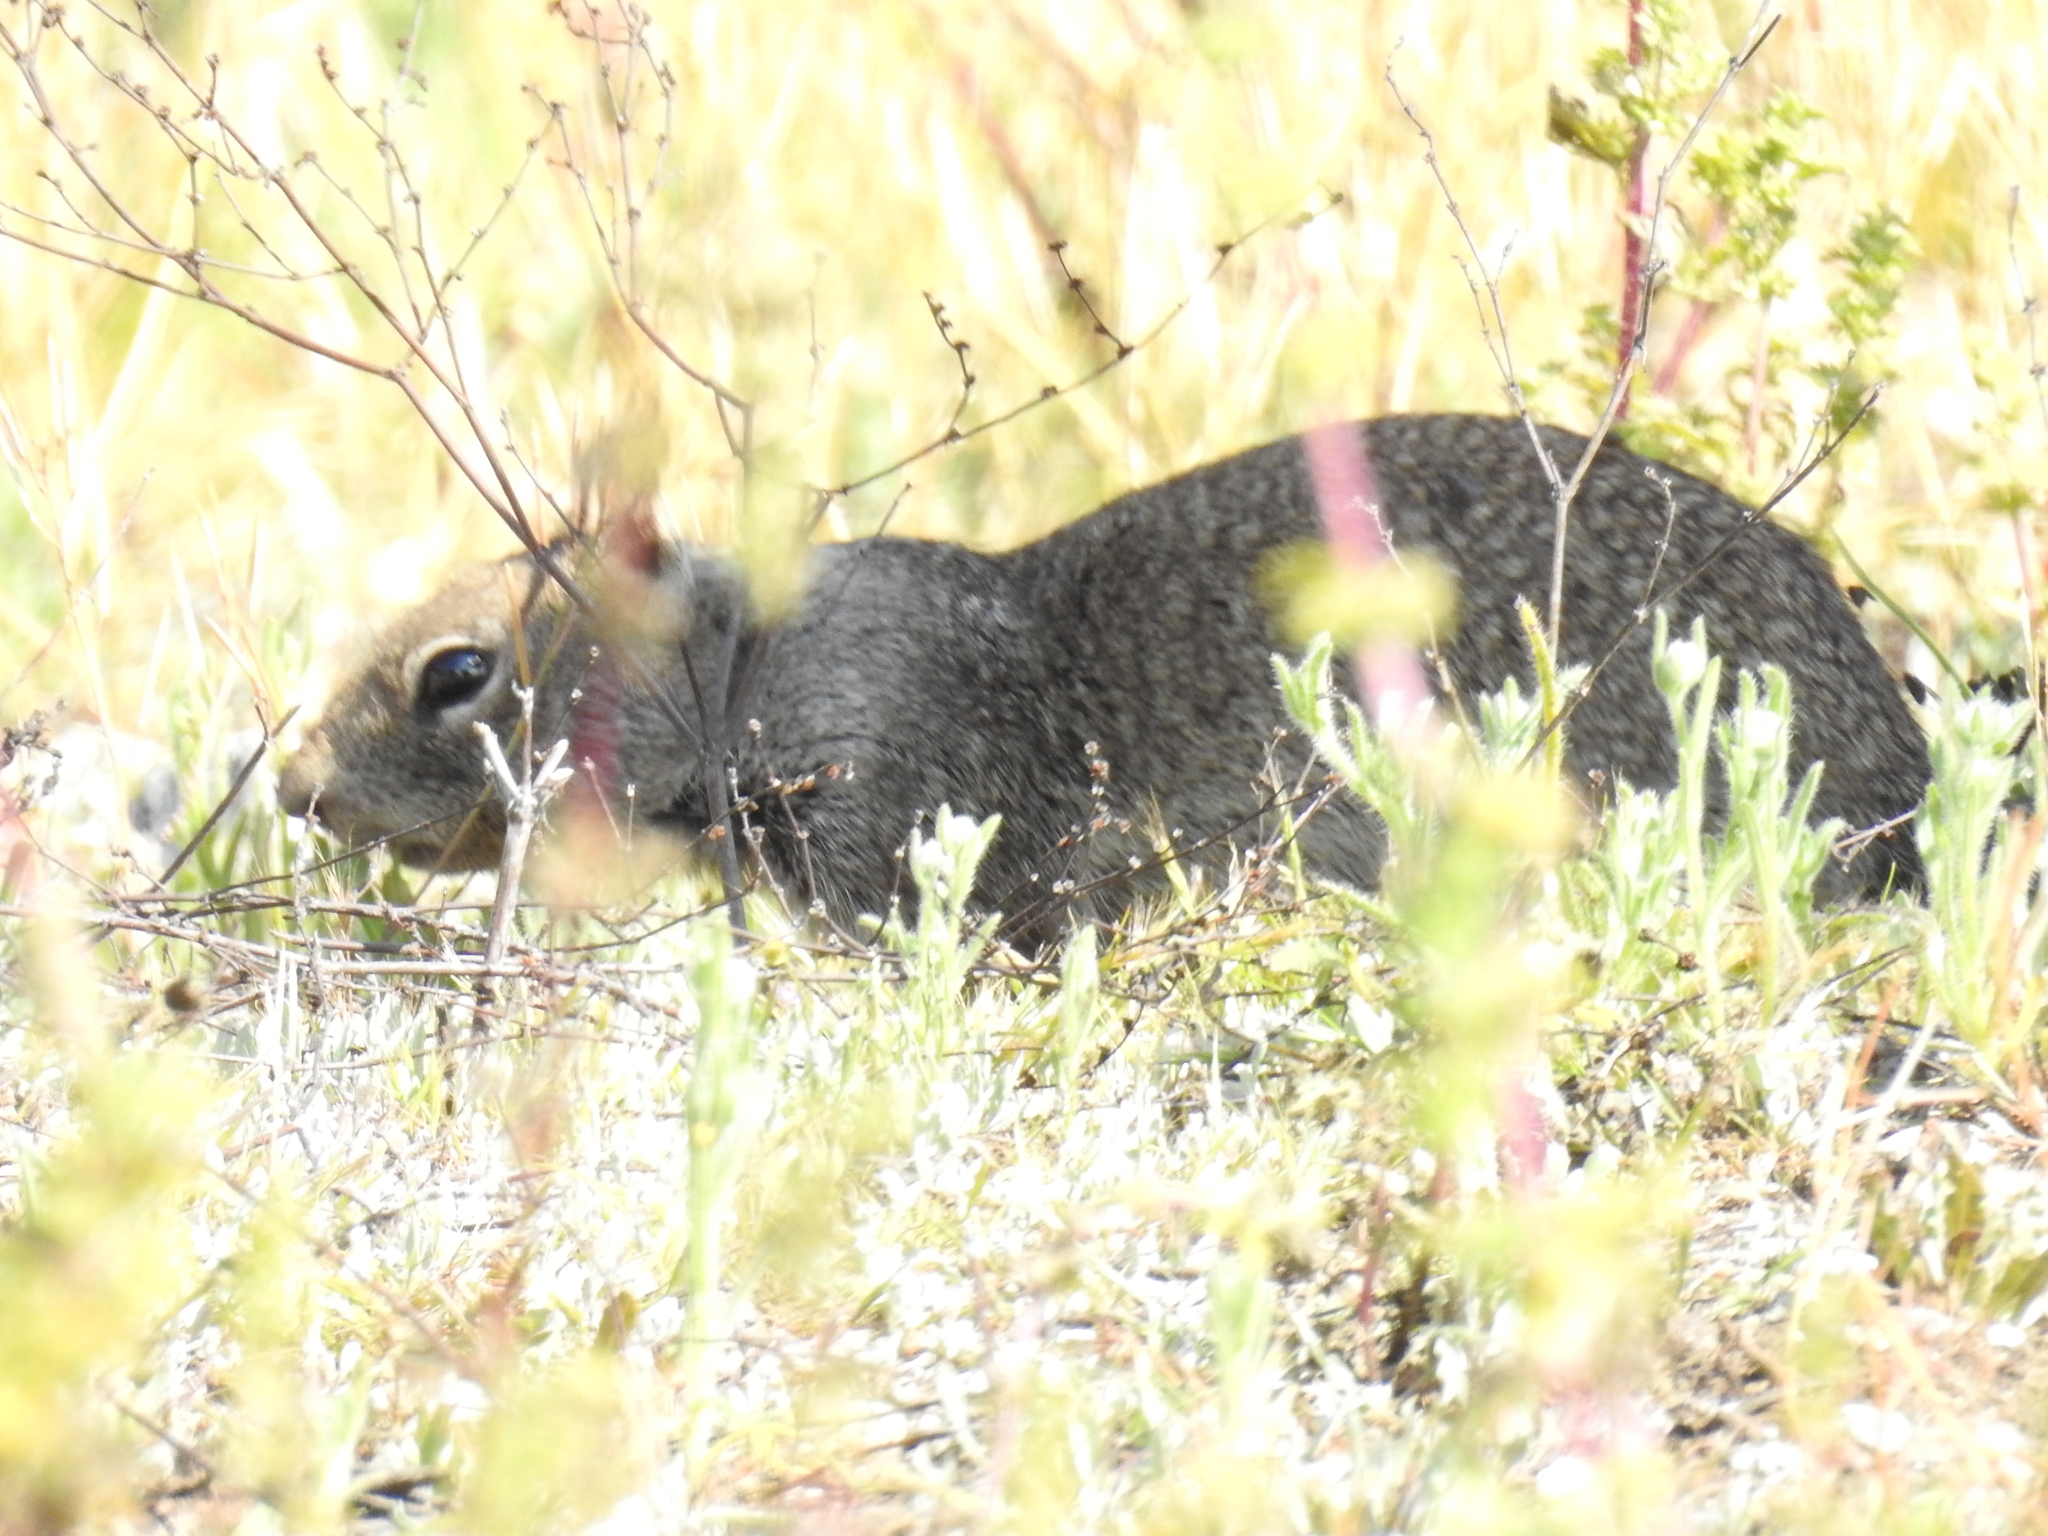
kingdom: Animalia
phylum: Chordata
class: Mammalia
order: Rodentia
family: Sciuridae
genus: Otospermophilus
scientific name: Otospermophilus beecheyi
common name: California ground squirrel
